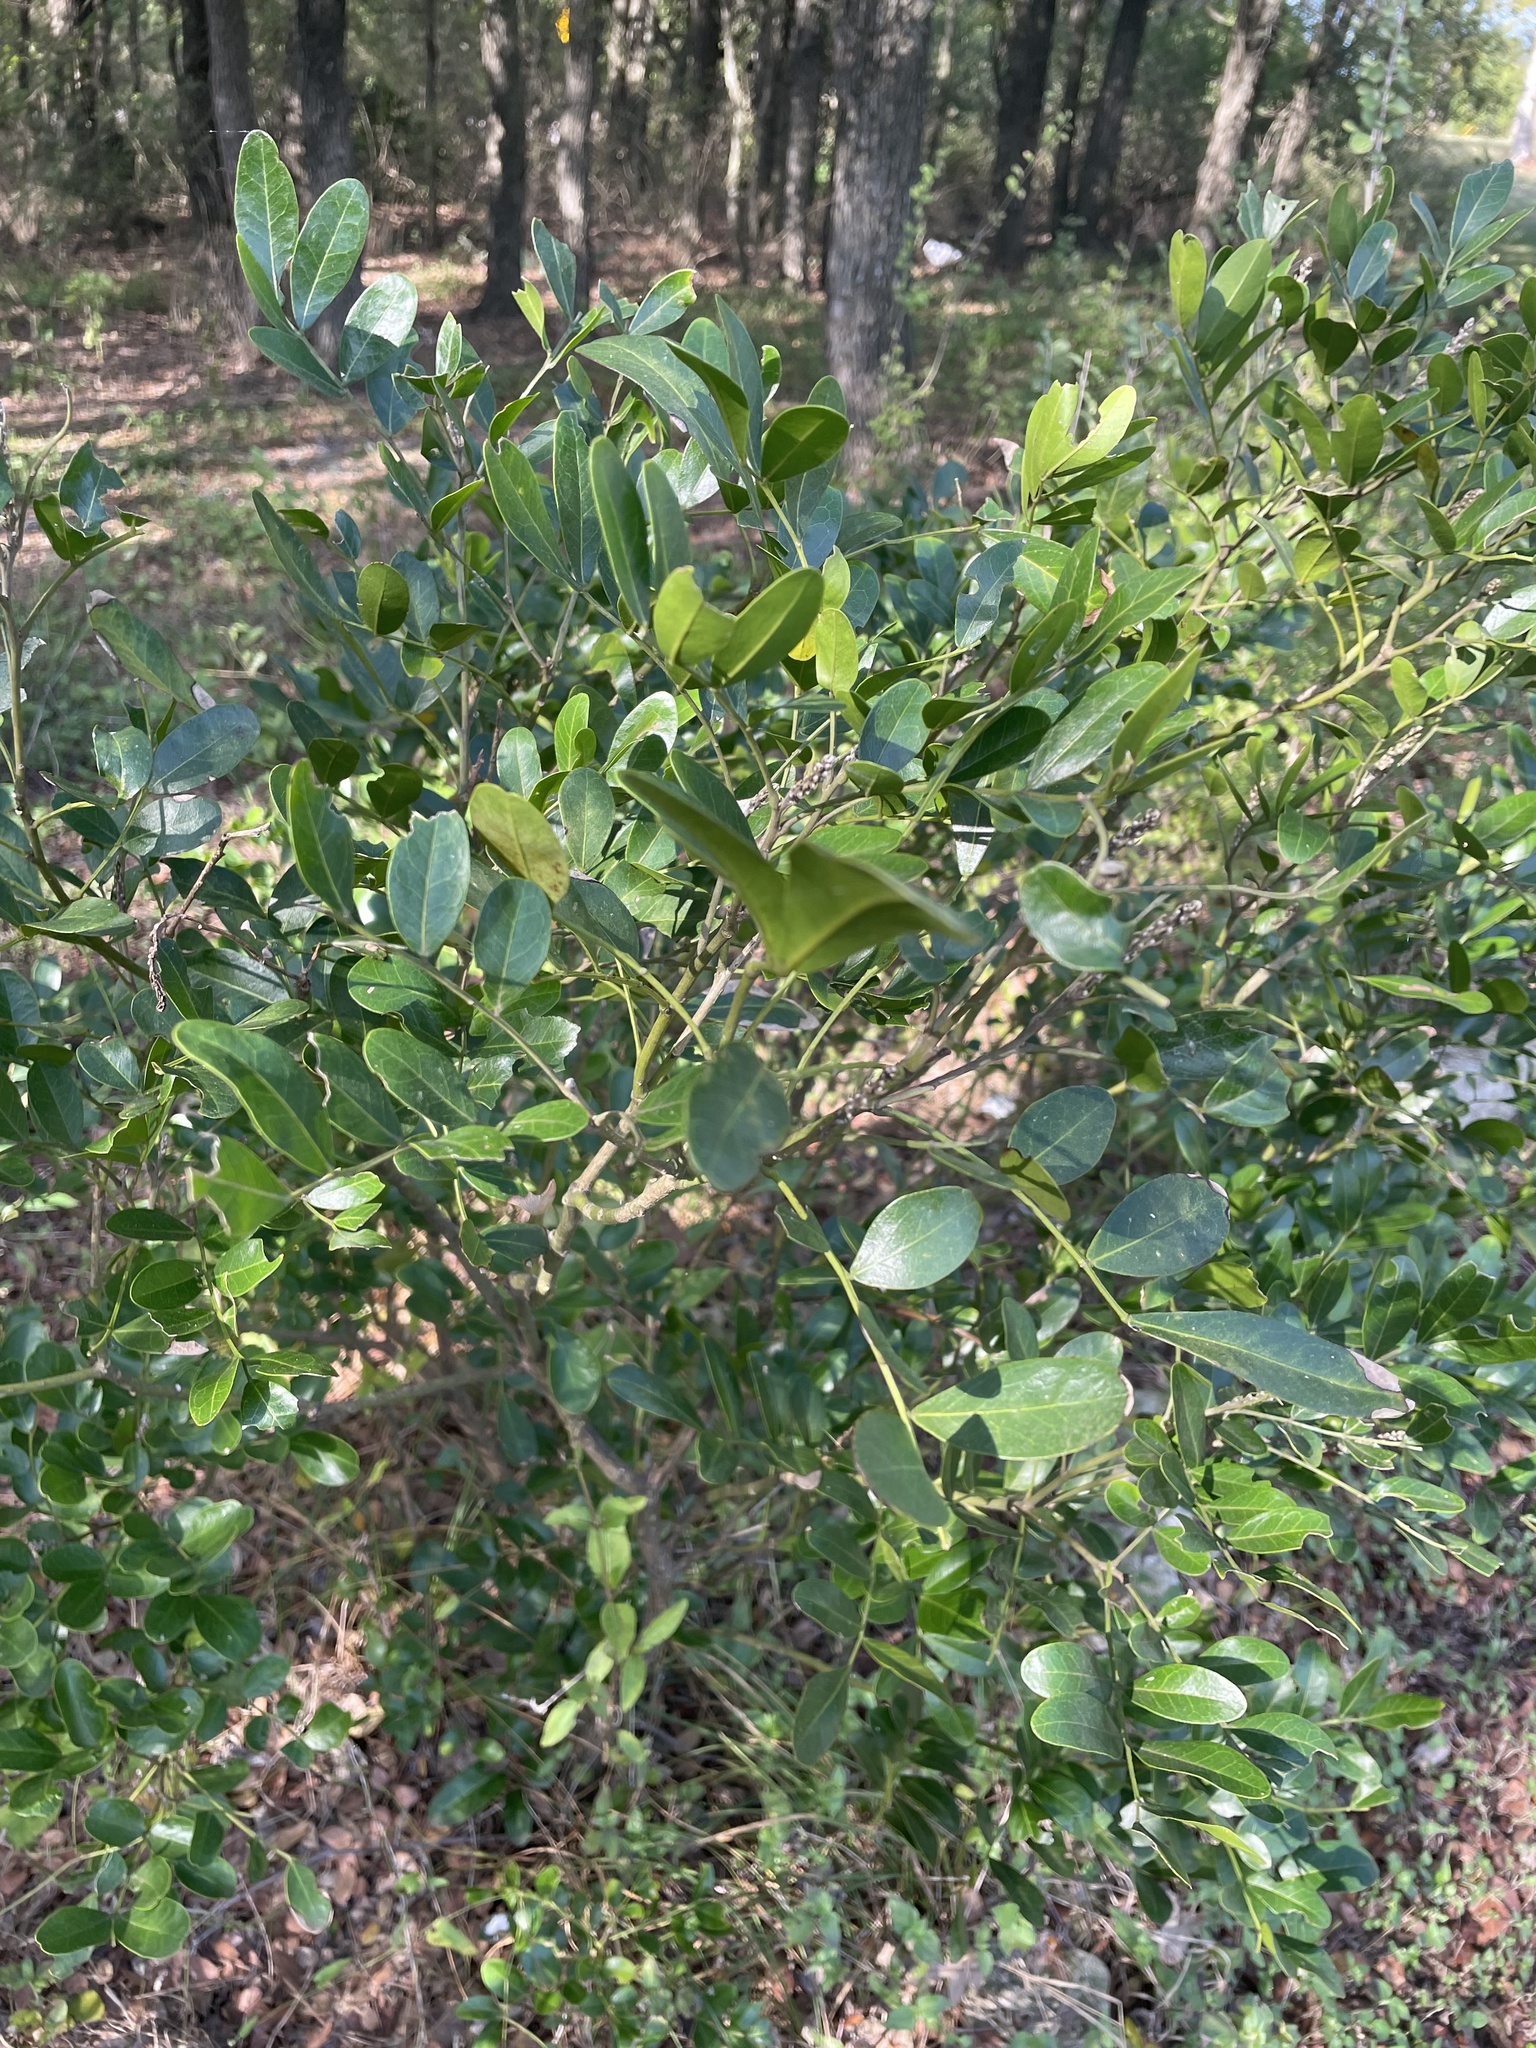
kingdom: Plantae
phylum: Tracheophyta
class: Magnoliopsida
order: Fabales
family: Fabaceae
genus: Dermatophyllum
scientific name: Dermatophyllum secundiflorum
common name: Texas-mountain-laurel
